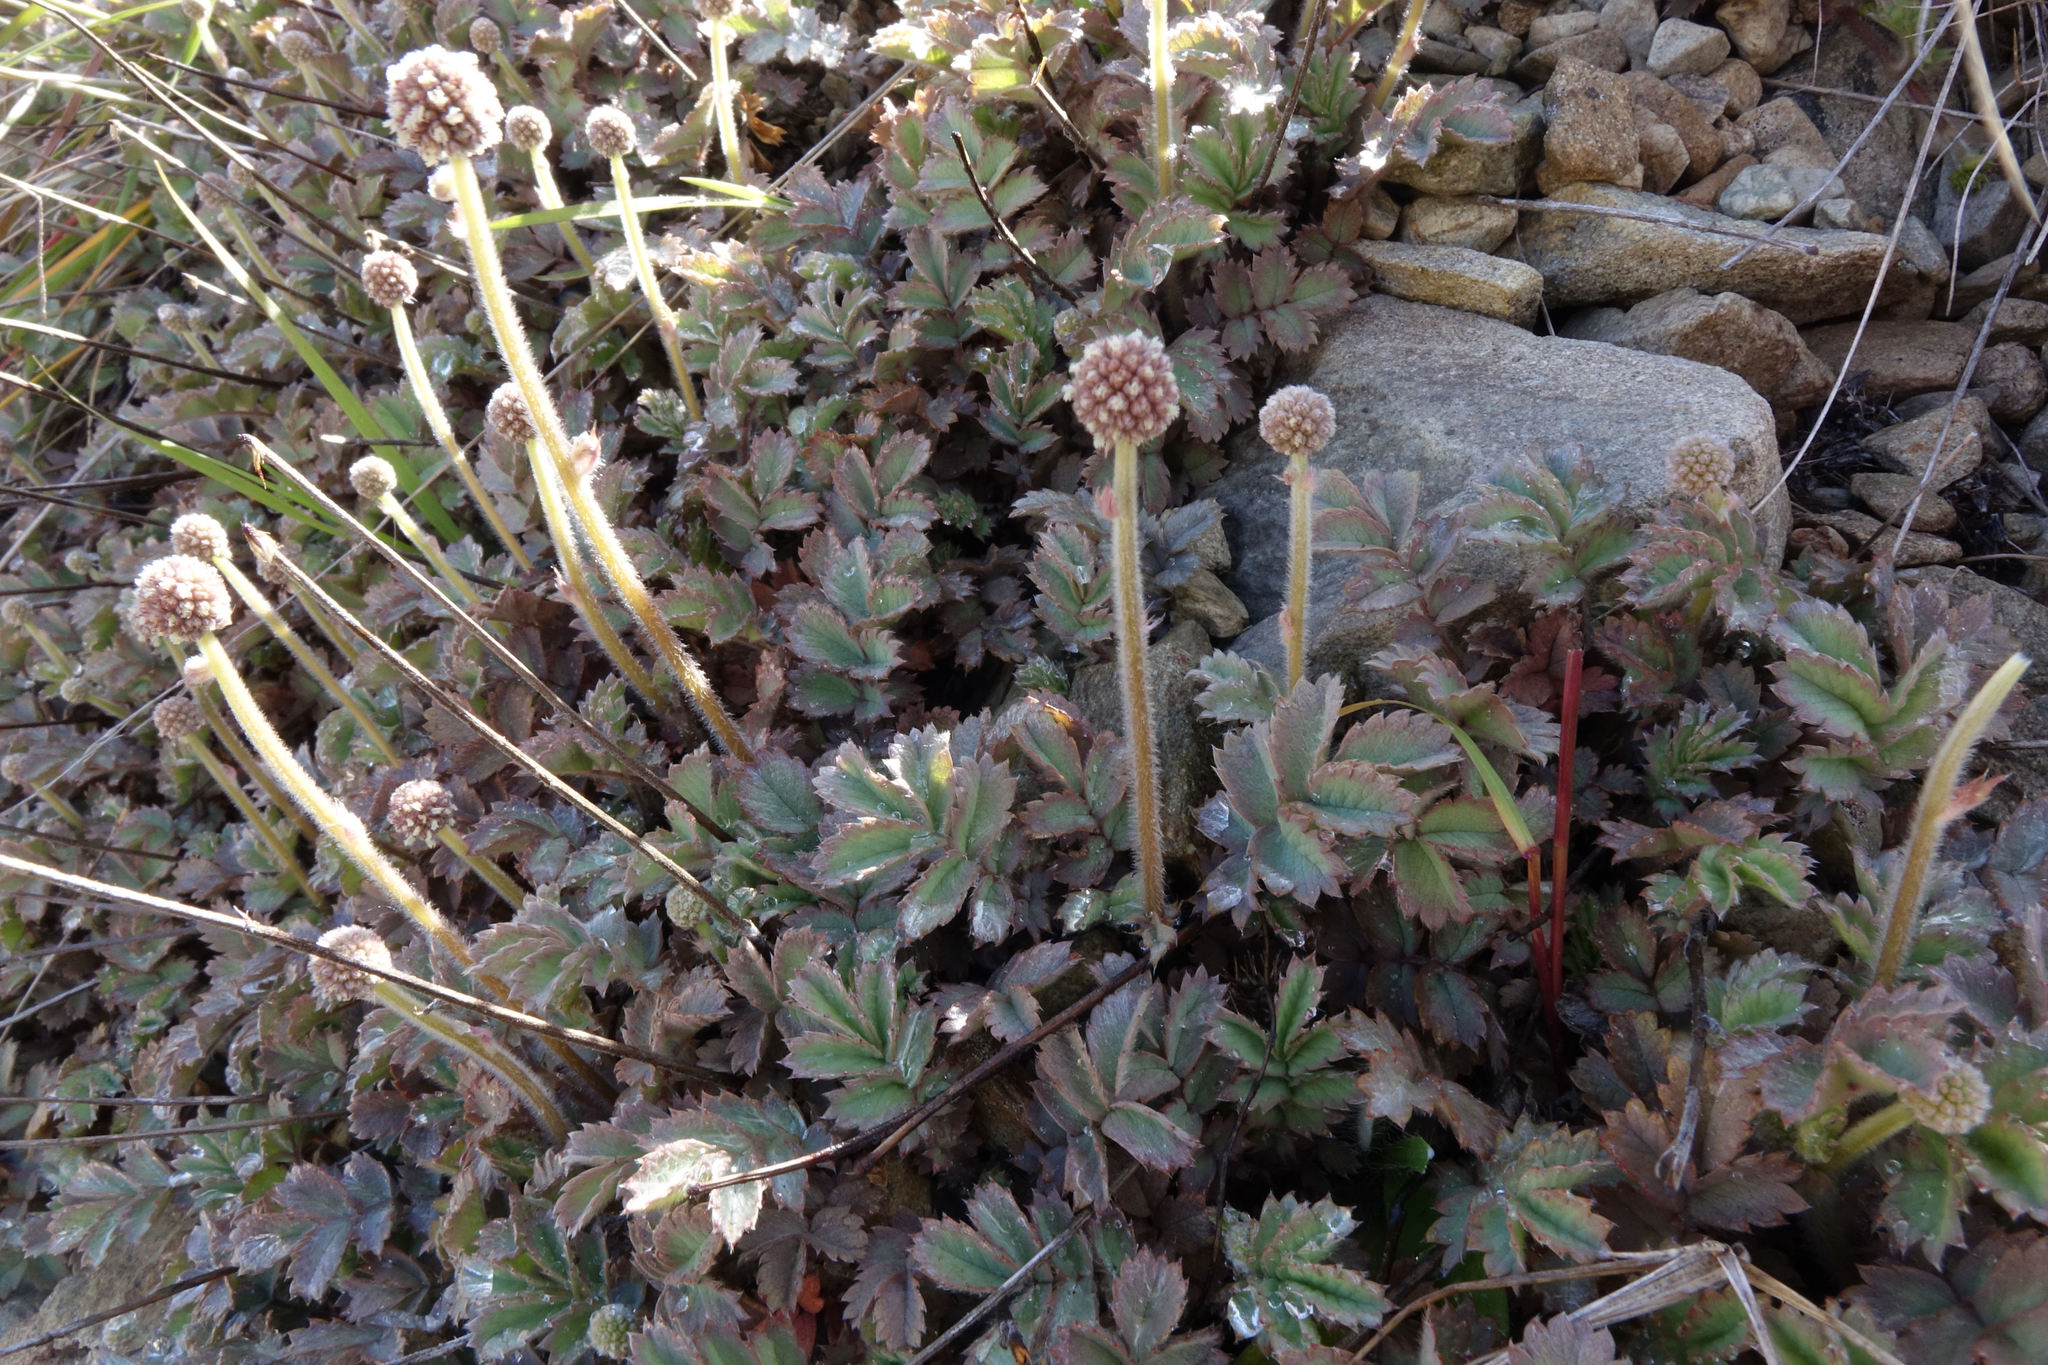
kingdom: Plantae
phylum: Tracheophyta
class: Magnoliopsida
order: Rosales
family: Rosaceae
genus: Acaena
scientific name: Acaena caesiiglauca
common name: Glaucous pirri-pirri-bur
